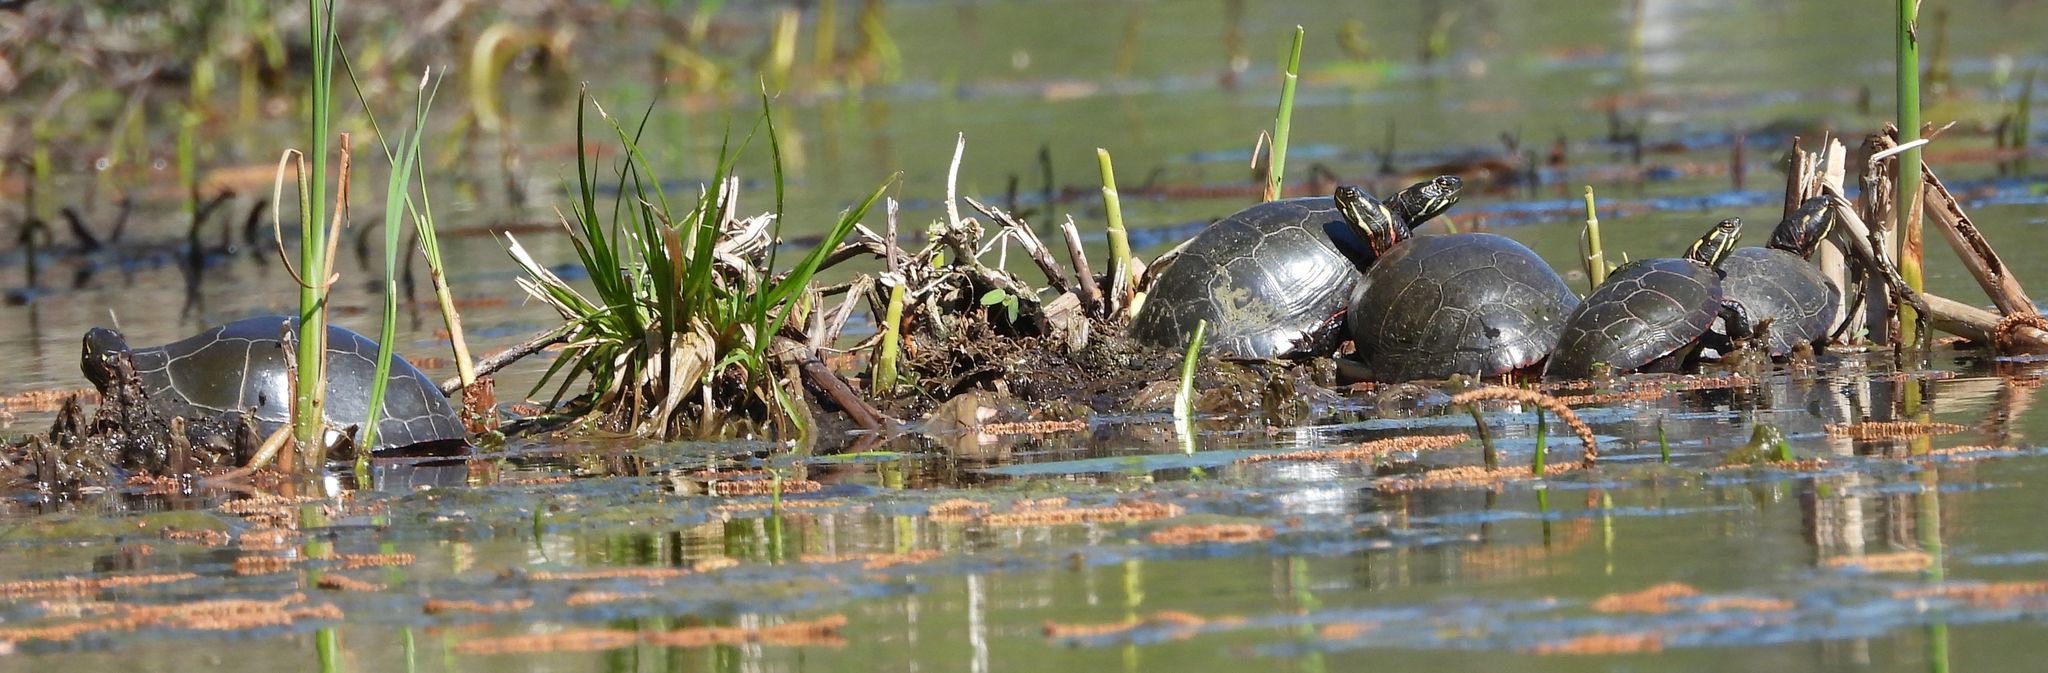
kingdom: Animalia
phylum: Chordata
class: Testudines
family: Emydidae
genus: Chrysemys
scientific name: Chrysemys picta
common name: Painted turtle
